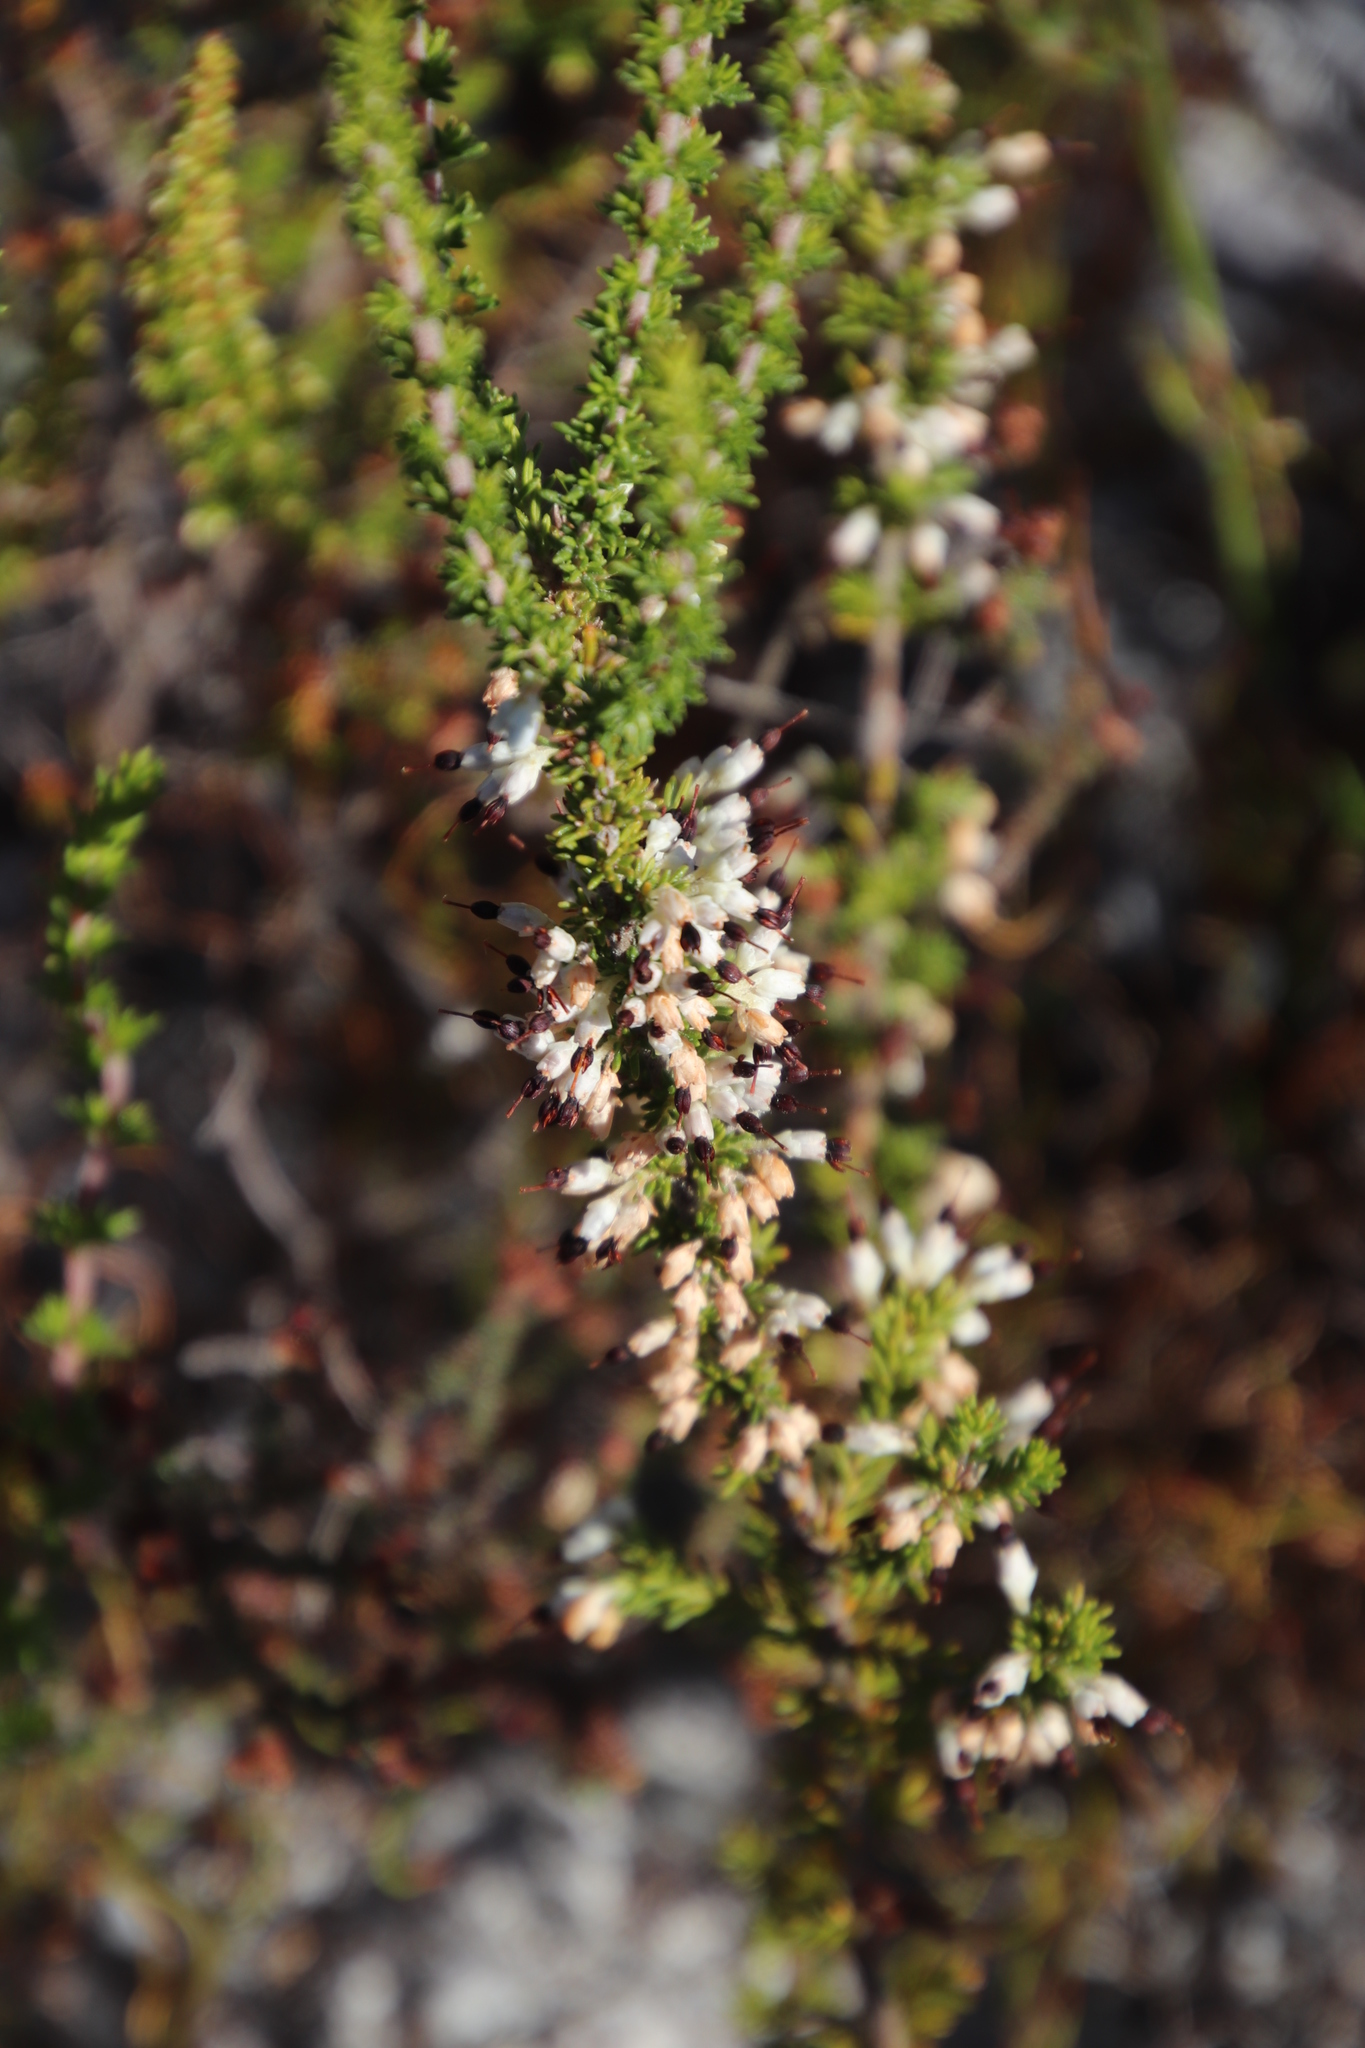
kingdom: Plantae
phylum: Tracheophyta
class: Magnoliopsida
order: Ericales
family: Ericaceae
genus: Erica
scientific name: Erica imbricata
